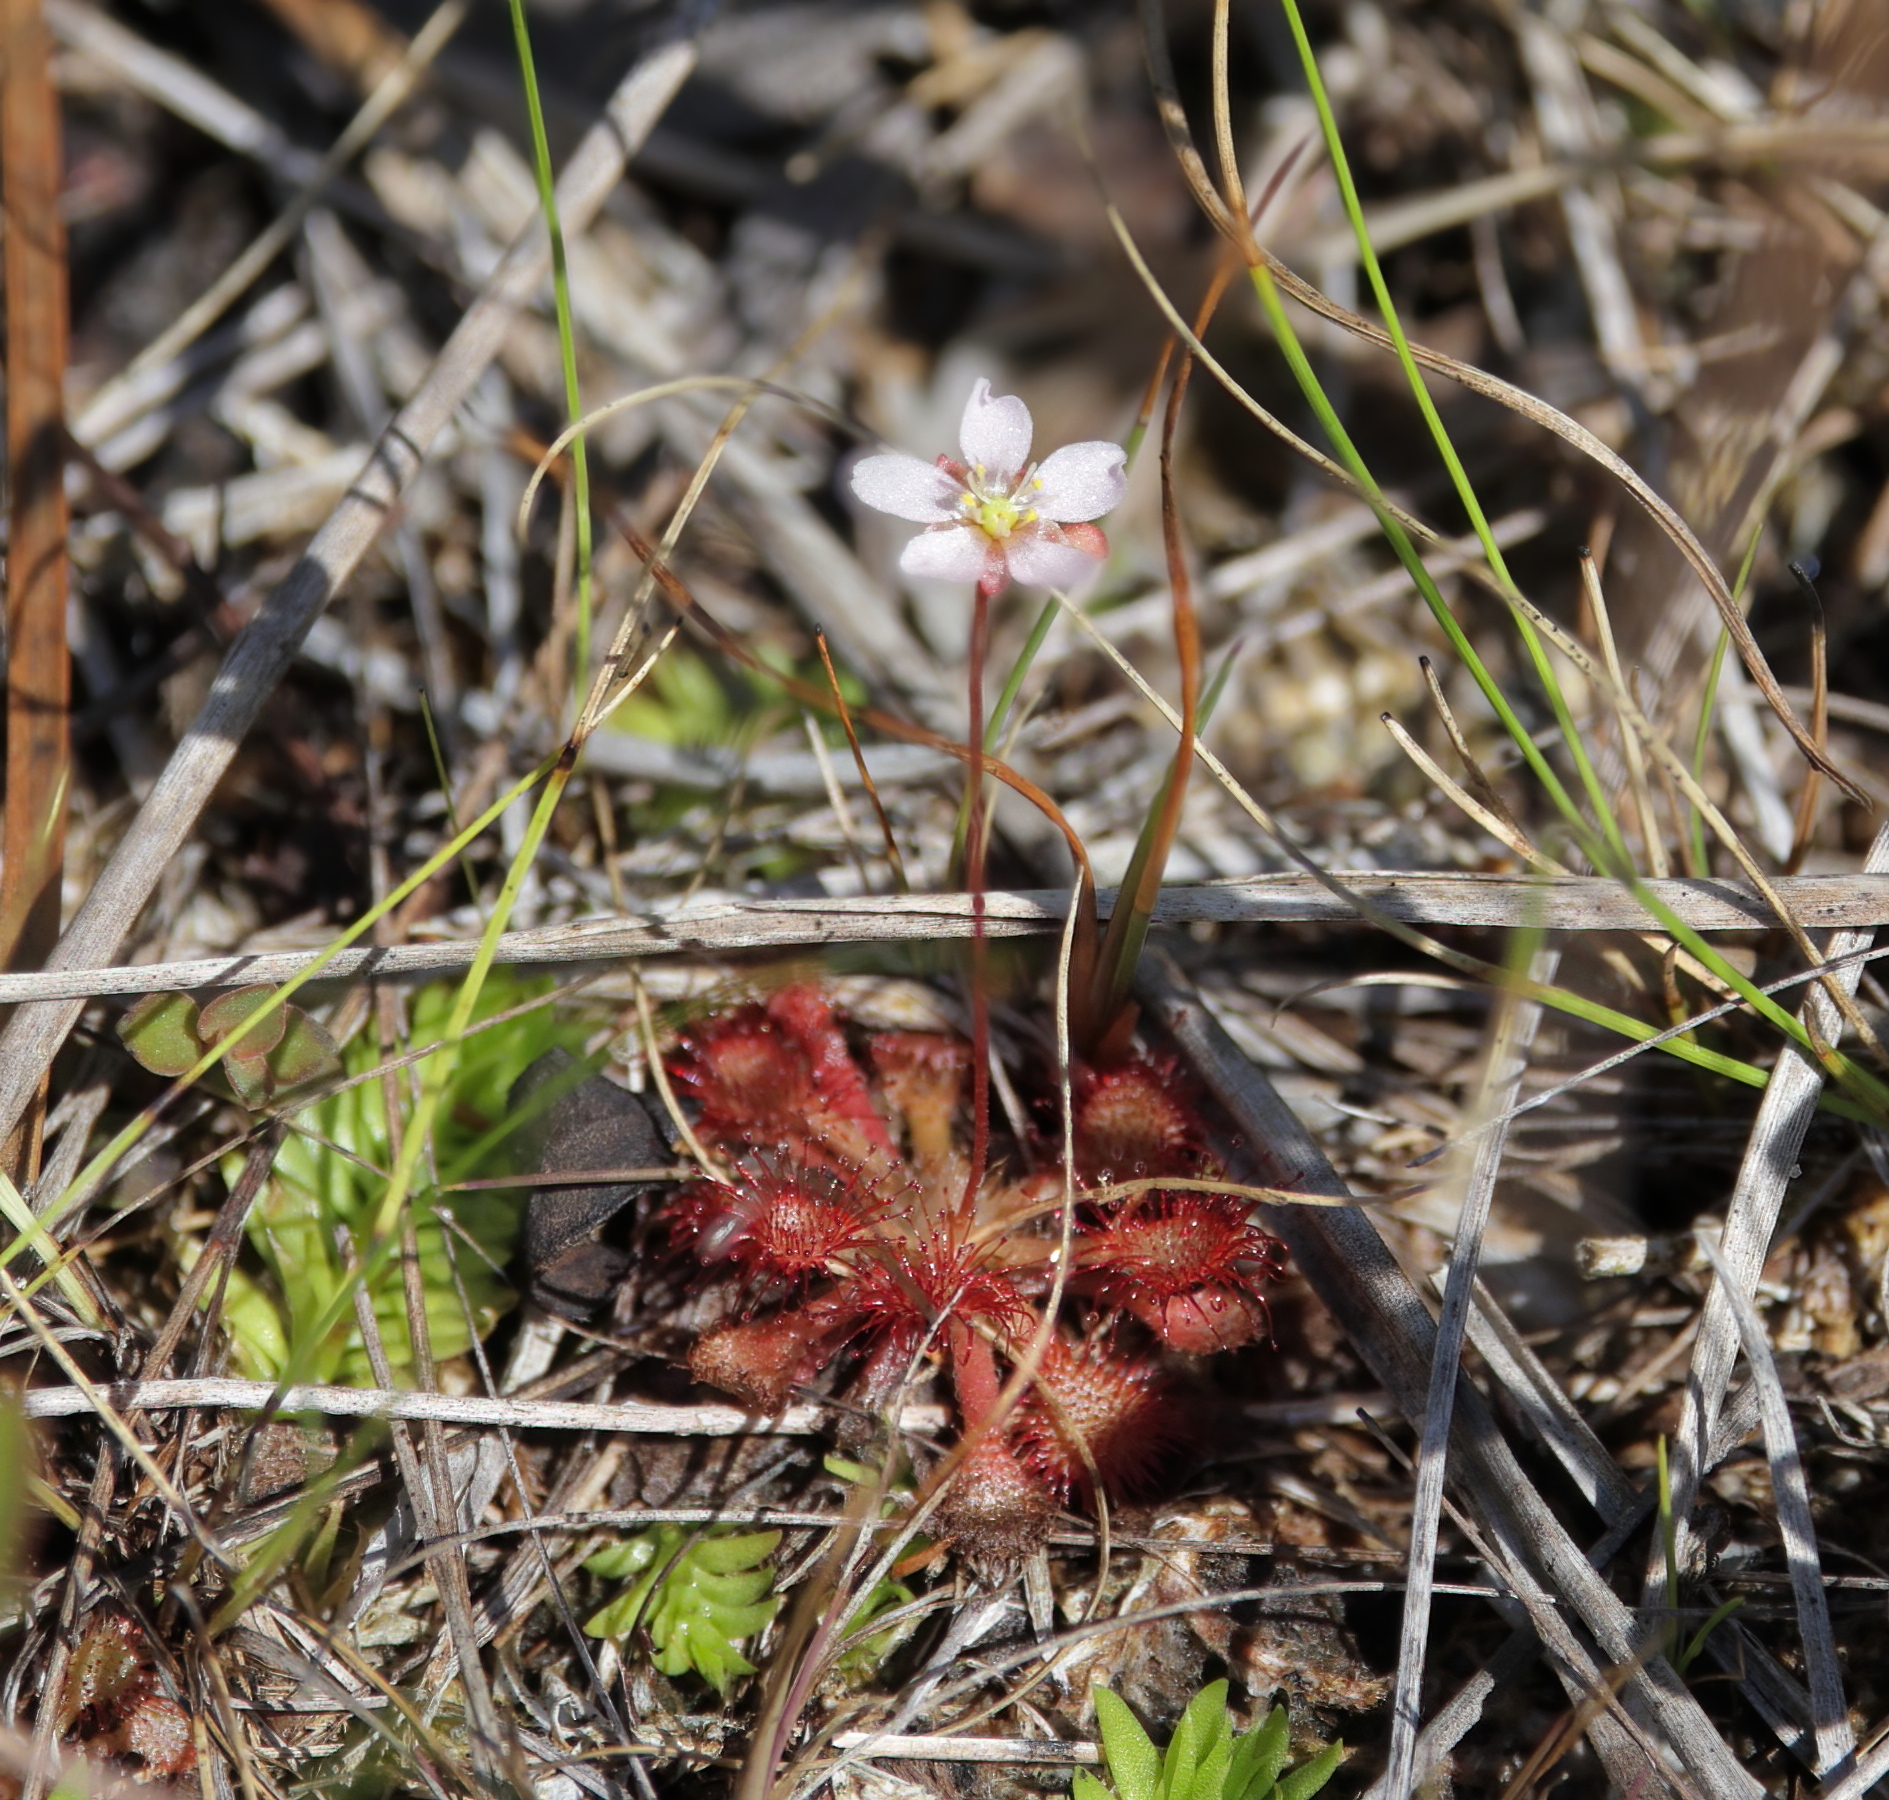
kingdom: Plantae
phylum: Tracheophyta
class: Magnoliopsida
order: Caryophyllales
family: Droseraceae
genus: Drosera
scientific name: Drosera capillaris
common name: Pink sundew
